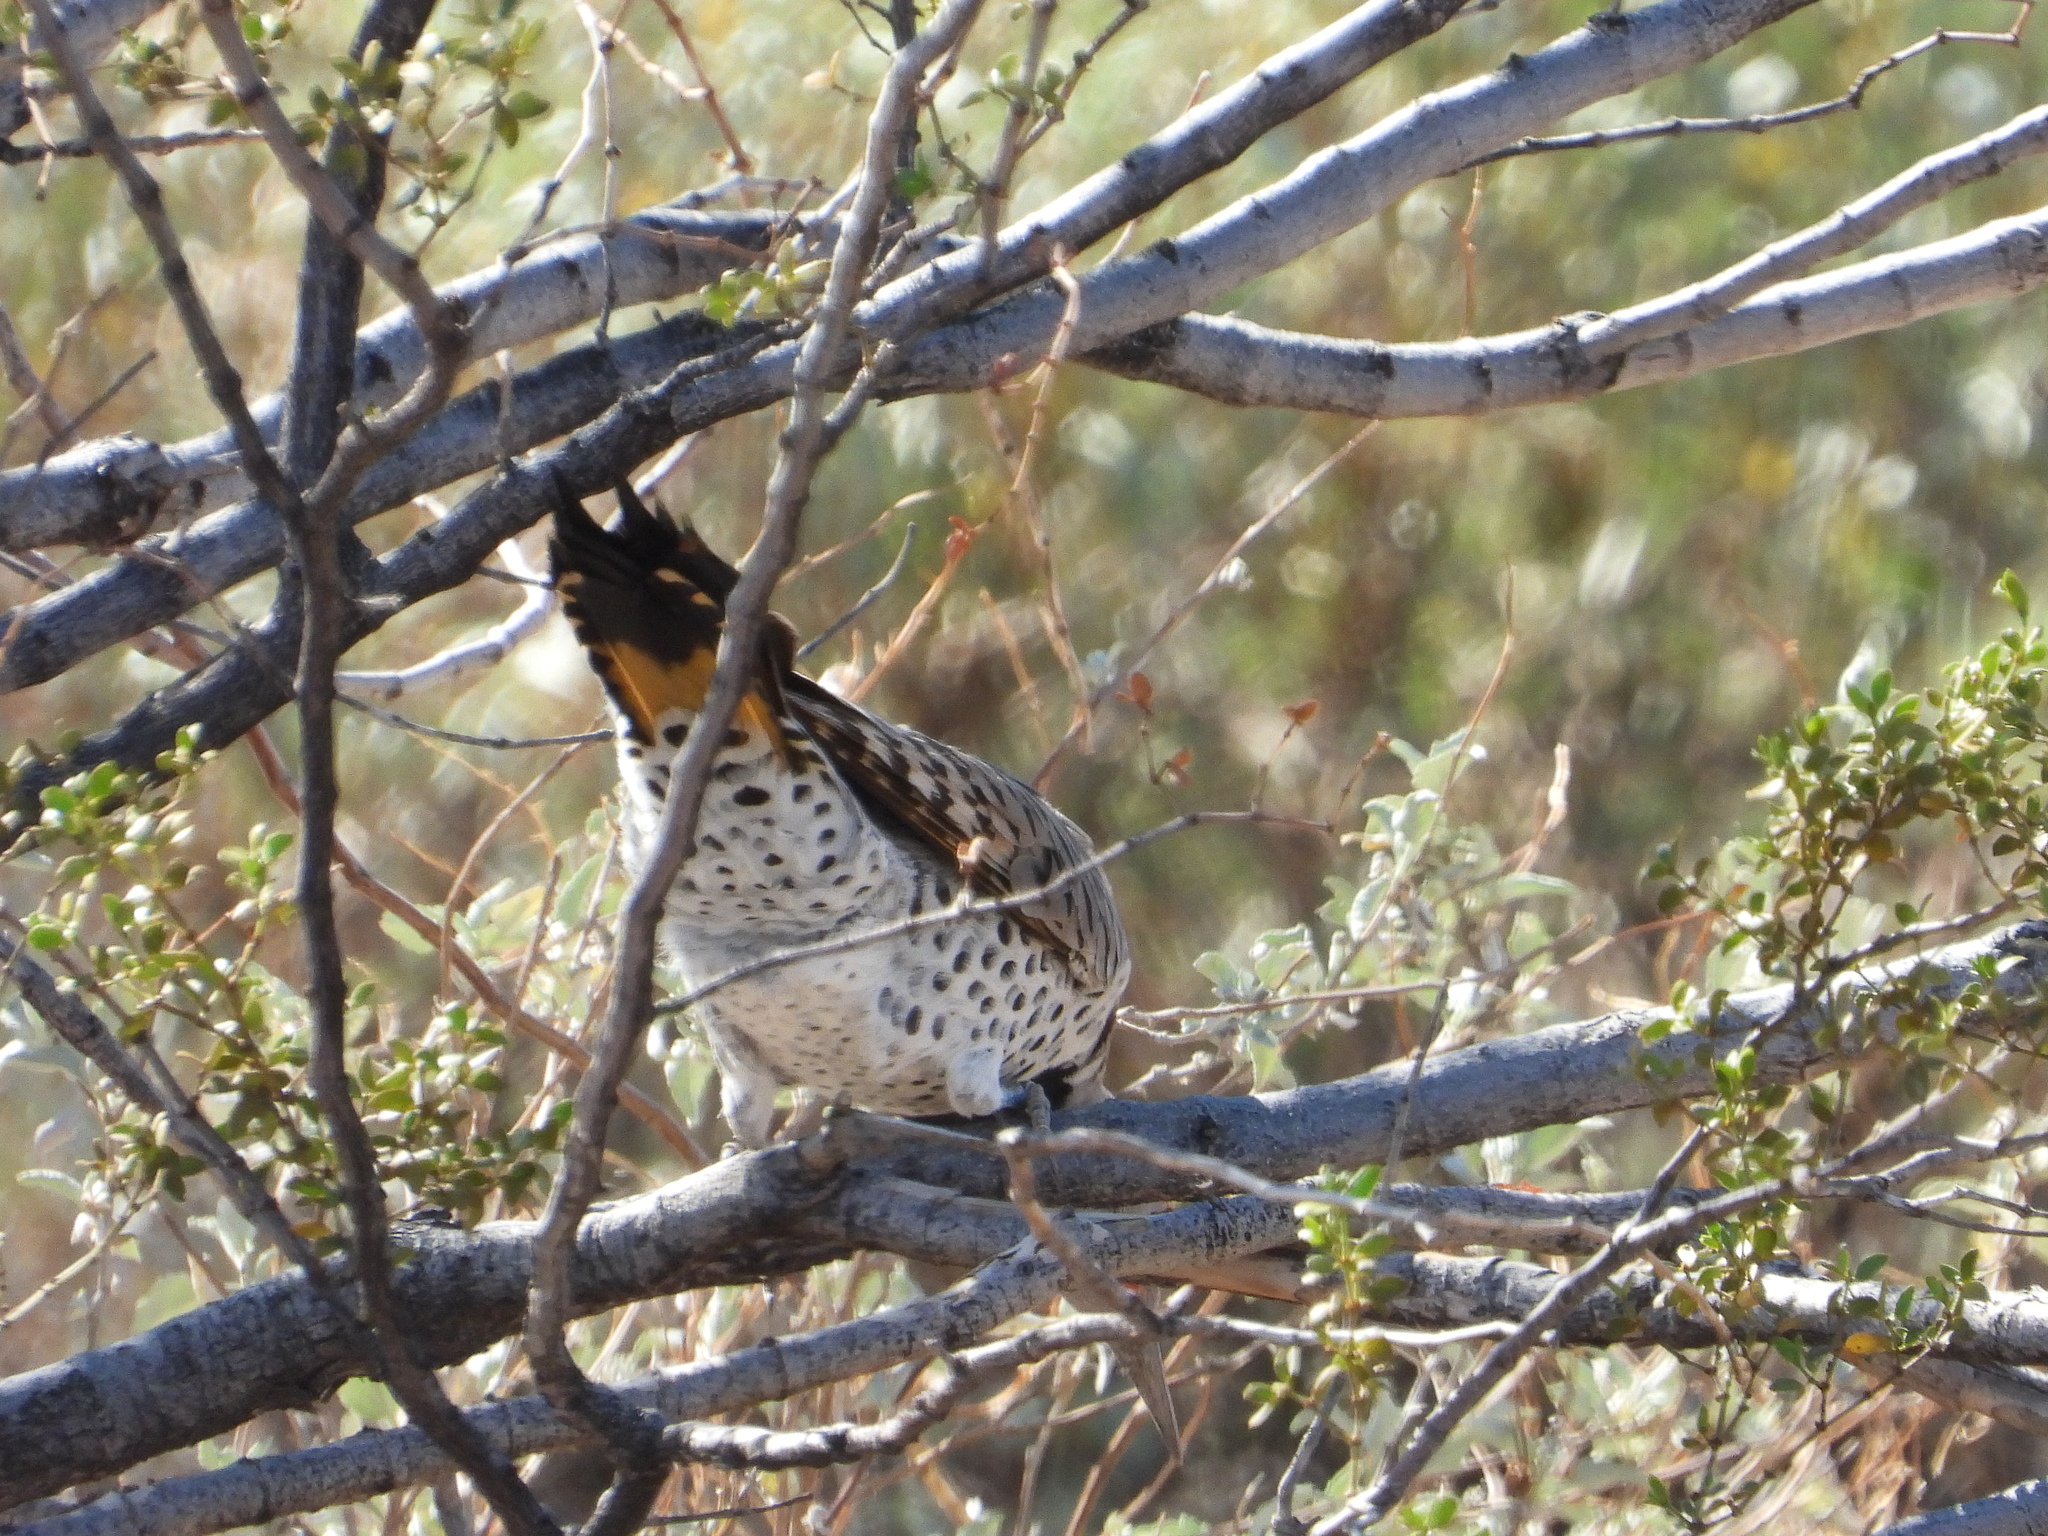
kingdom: Animalia
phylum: Chordata
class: Aves
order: Piciformes
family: Picidae
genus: Colaptes
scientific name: Colaptes chrysoides
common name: Gilded flicker
